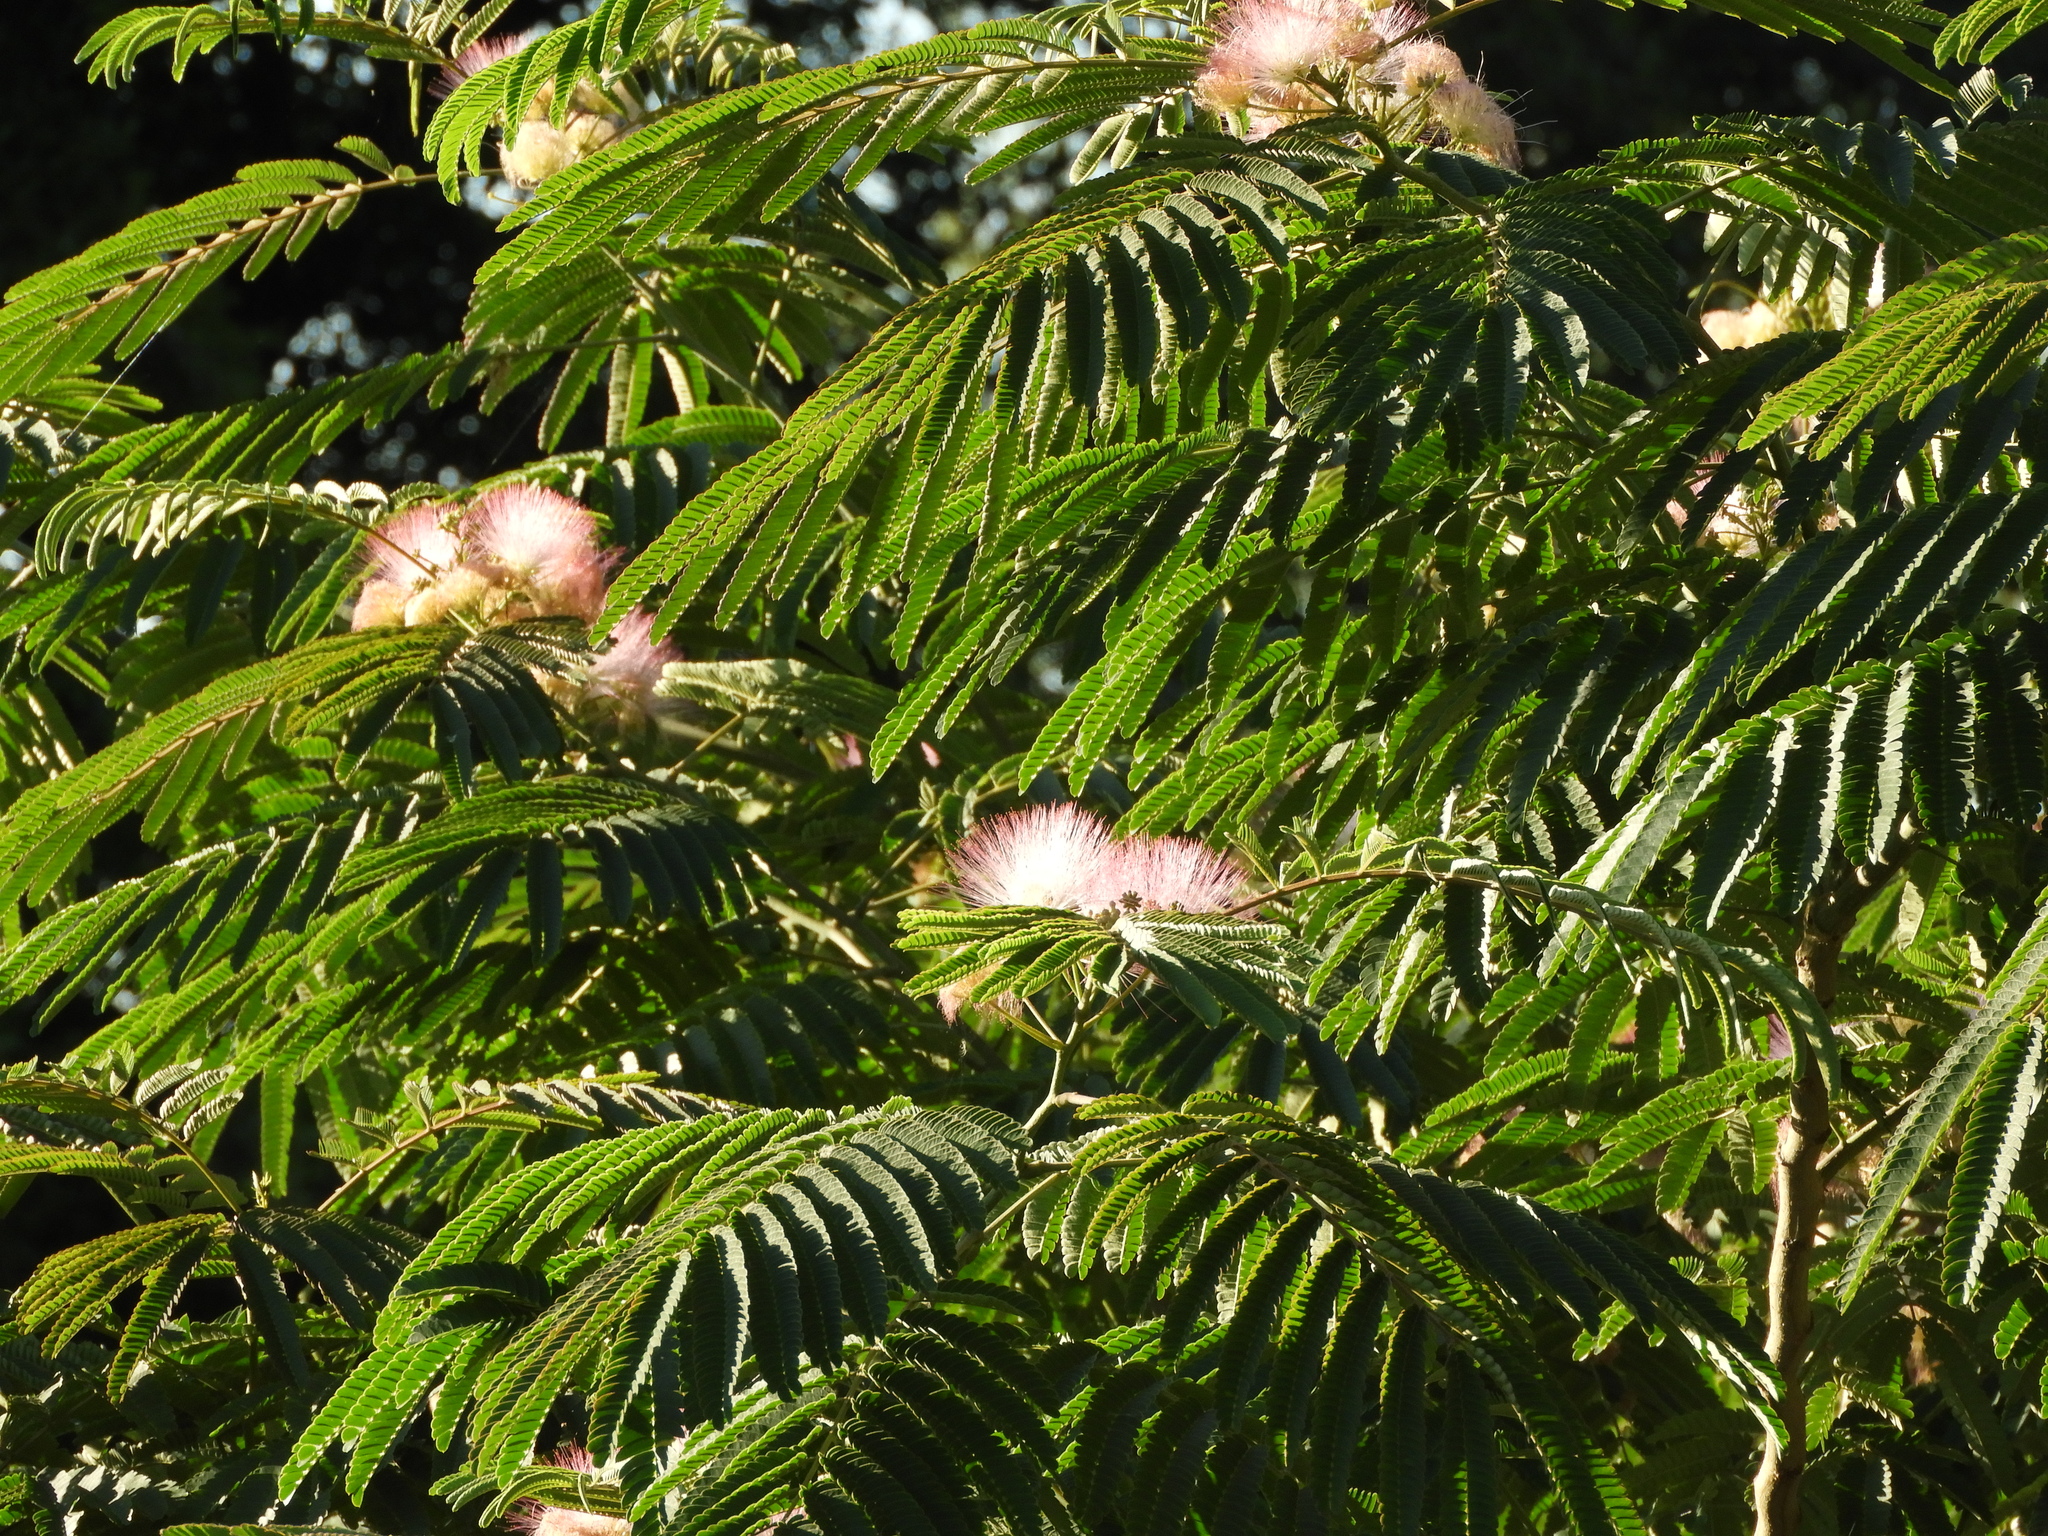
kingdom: Plantae
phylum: Tracheophyta
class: Magnoliopsida
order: Fabales
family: Fabaceae
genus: Albizia
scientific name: Albizia julibrissin
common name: Silktree
